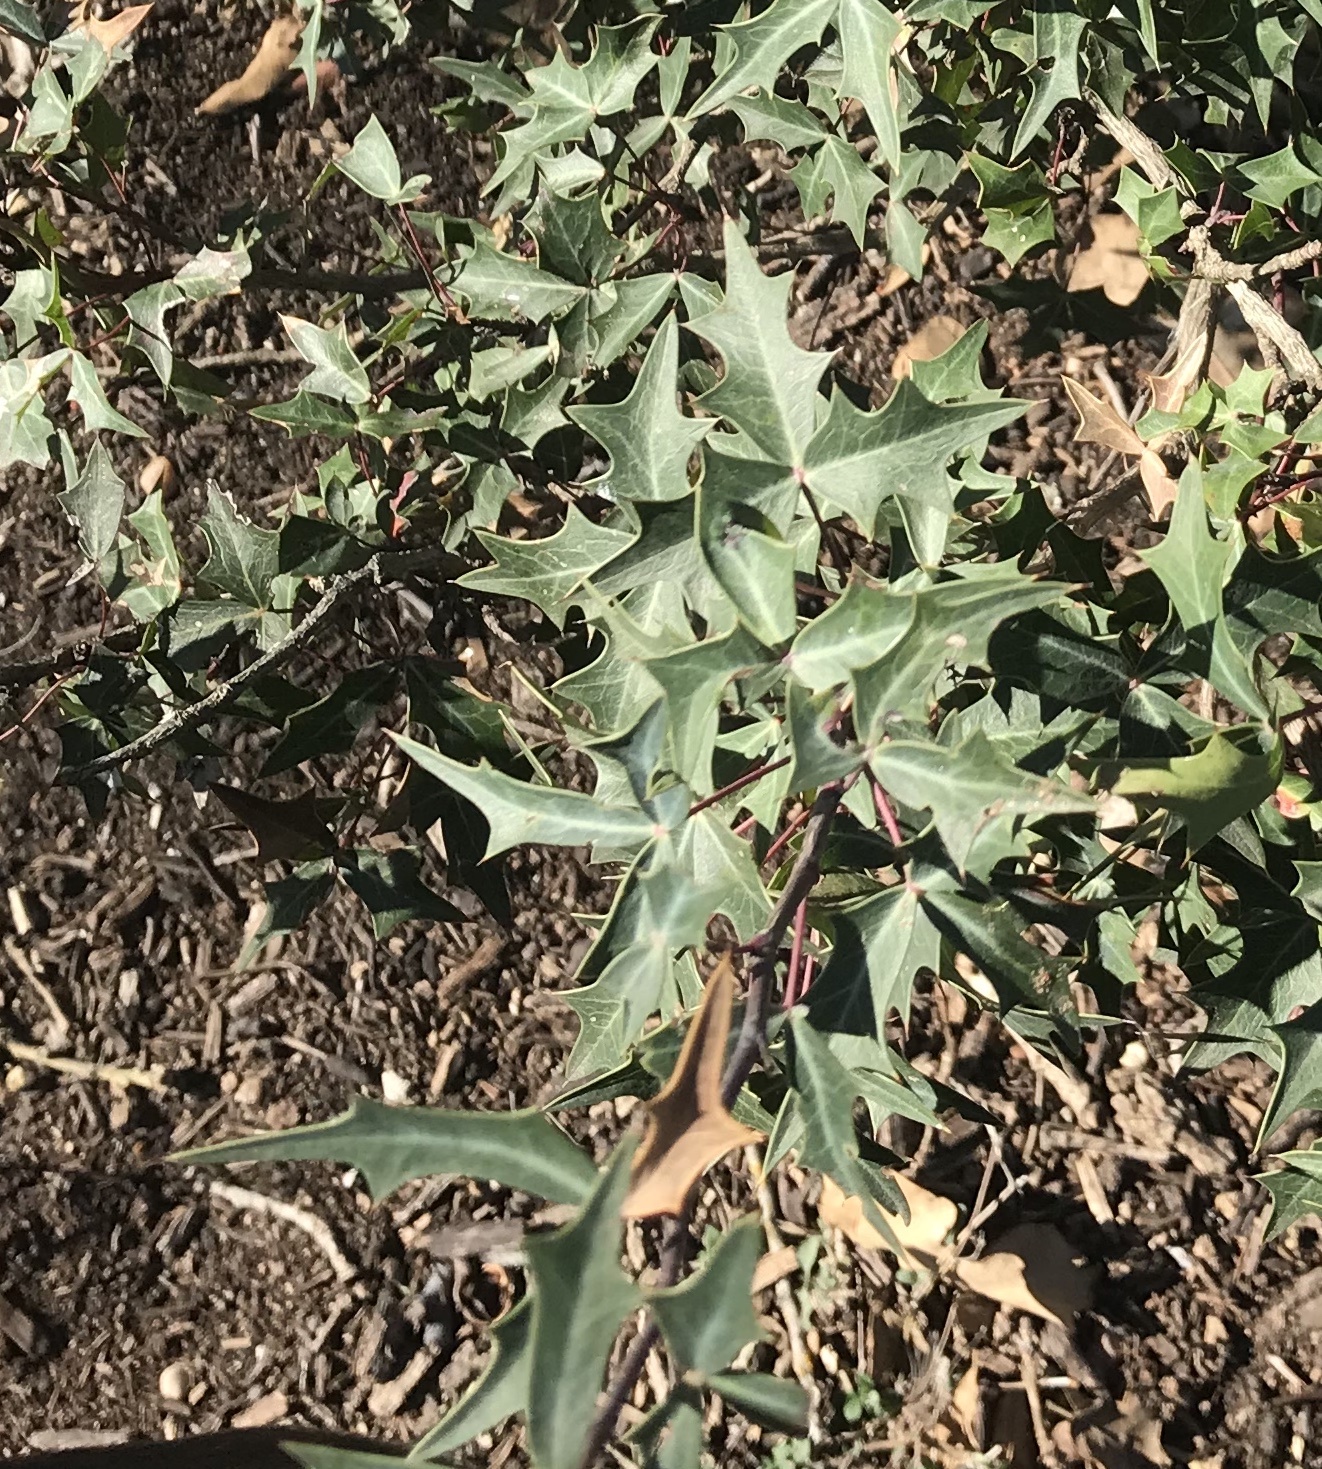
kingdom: Plantae
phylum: Tracheophyta
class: Magnoliopsida
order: Ranunculales
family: Berberidaceae
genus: Alloberberis
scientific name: Alloberberis trifoliolata
